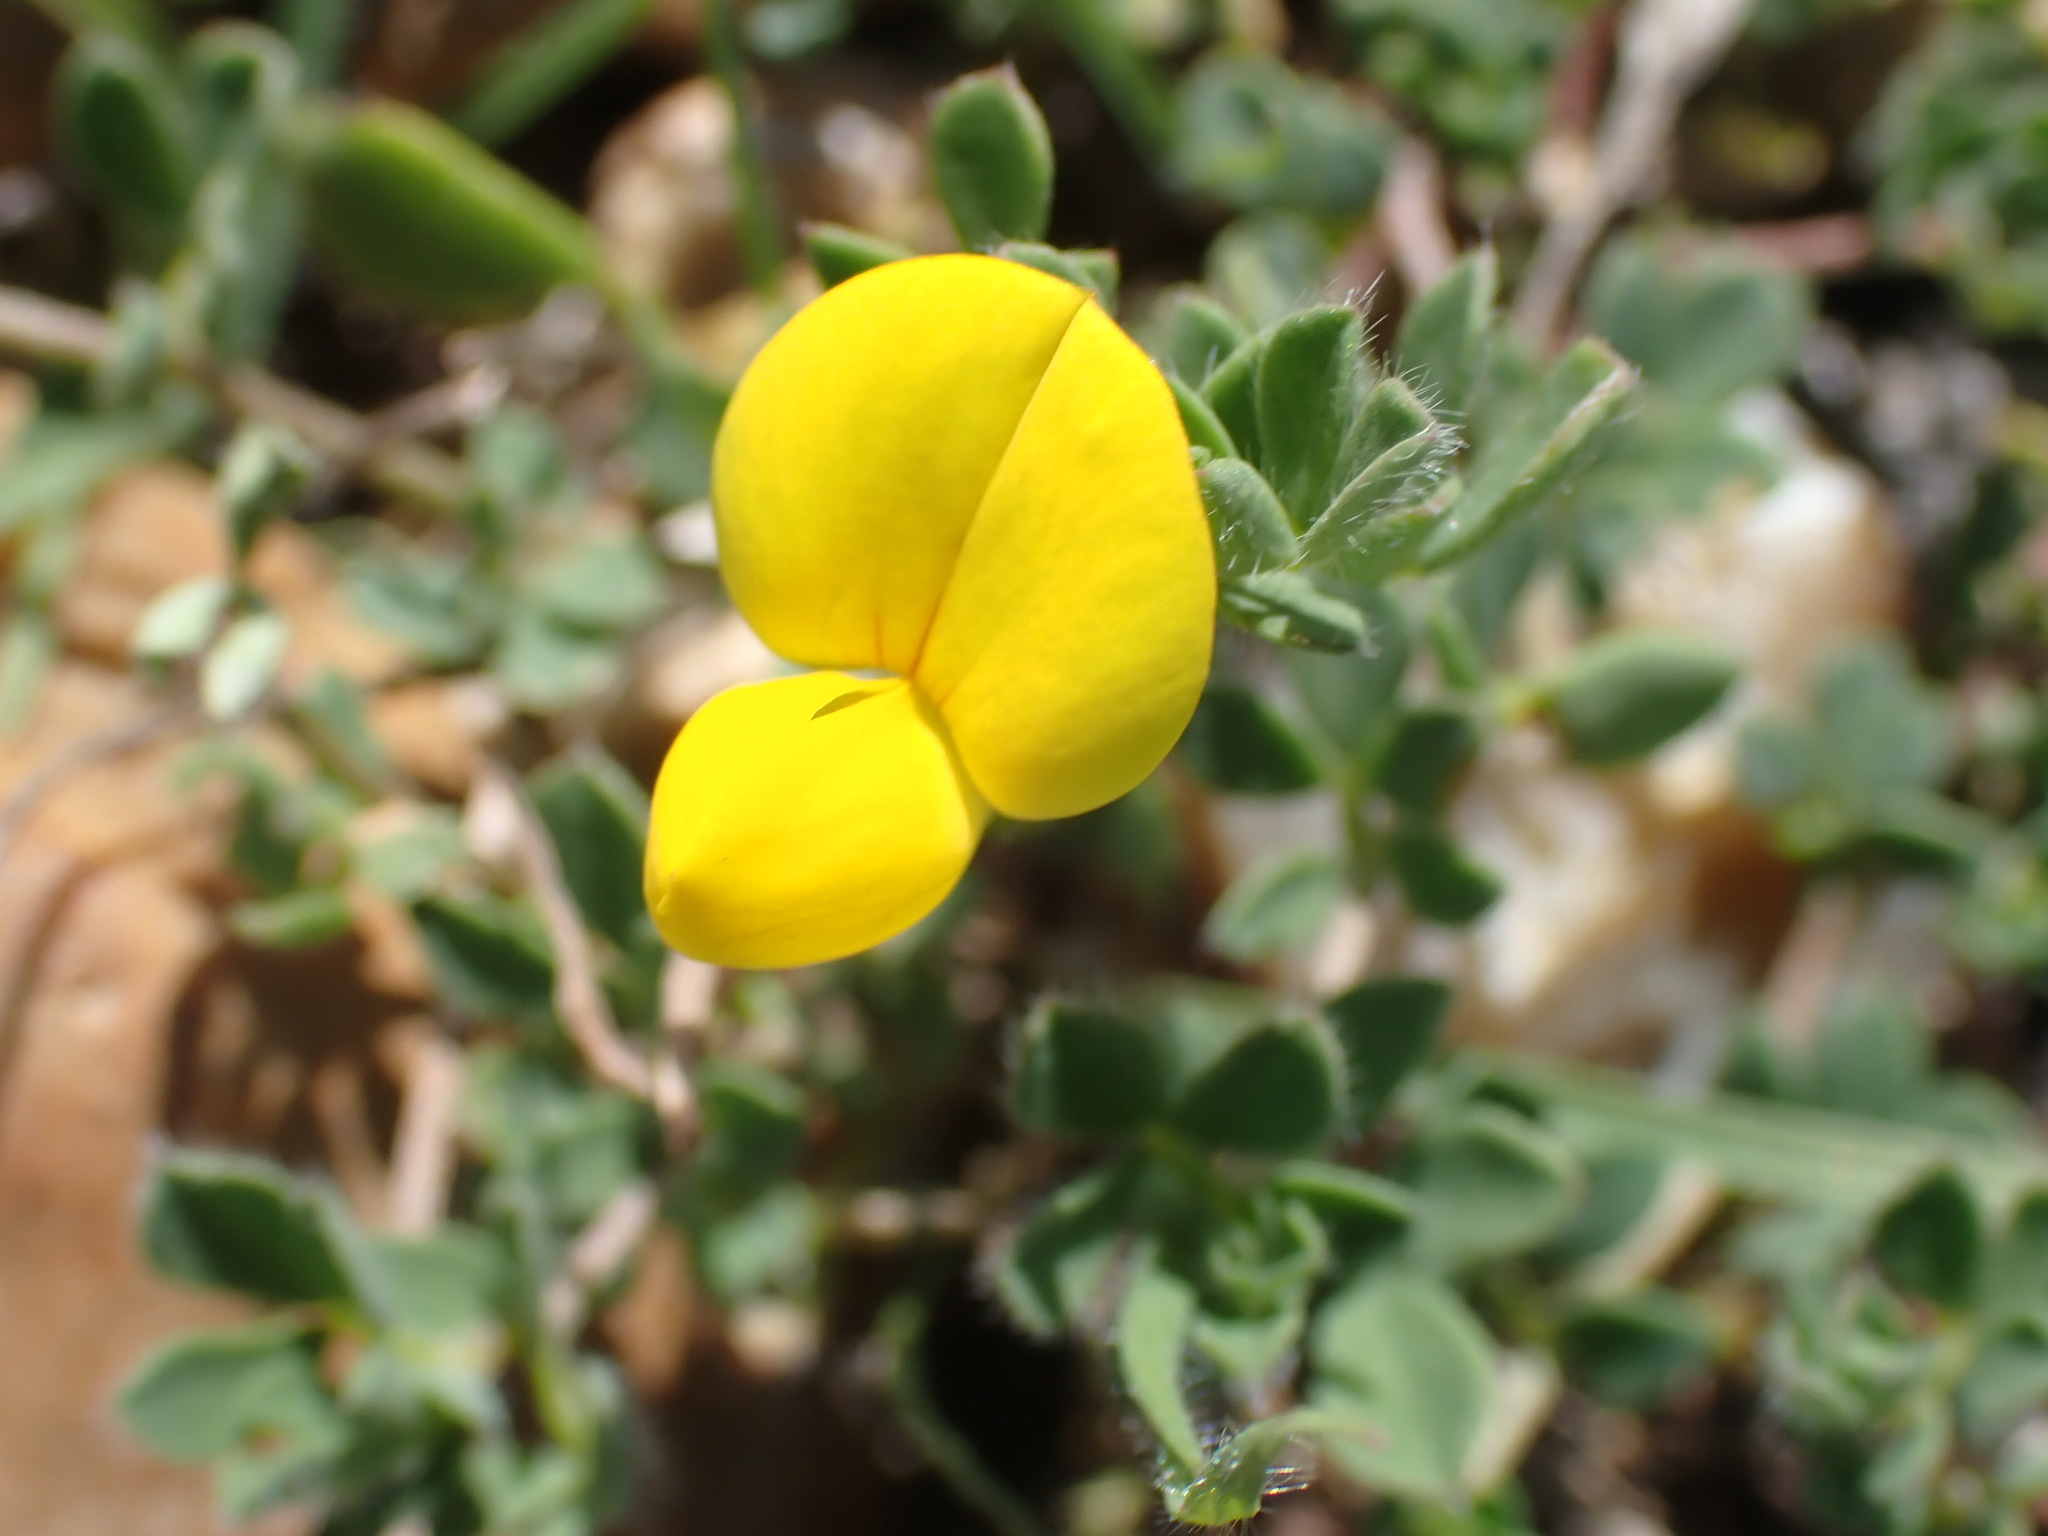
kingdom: Plantae
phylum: Tracheophyta
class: Magnoliopsida
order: Fabales
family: Fabaceae
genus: Lotus
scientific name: Lotus corniculatus
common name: Common bird's-foot-trefoil
